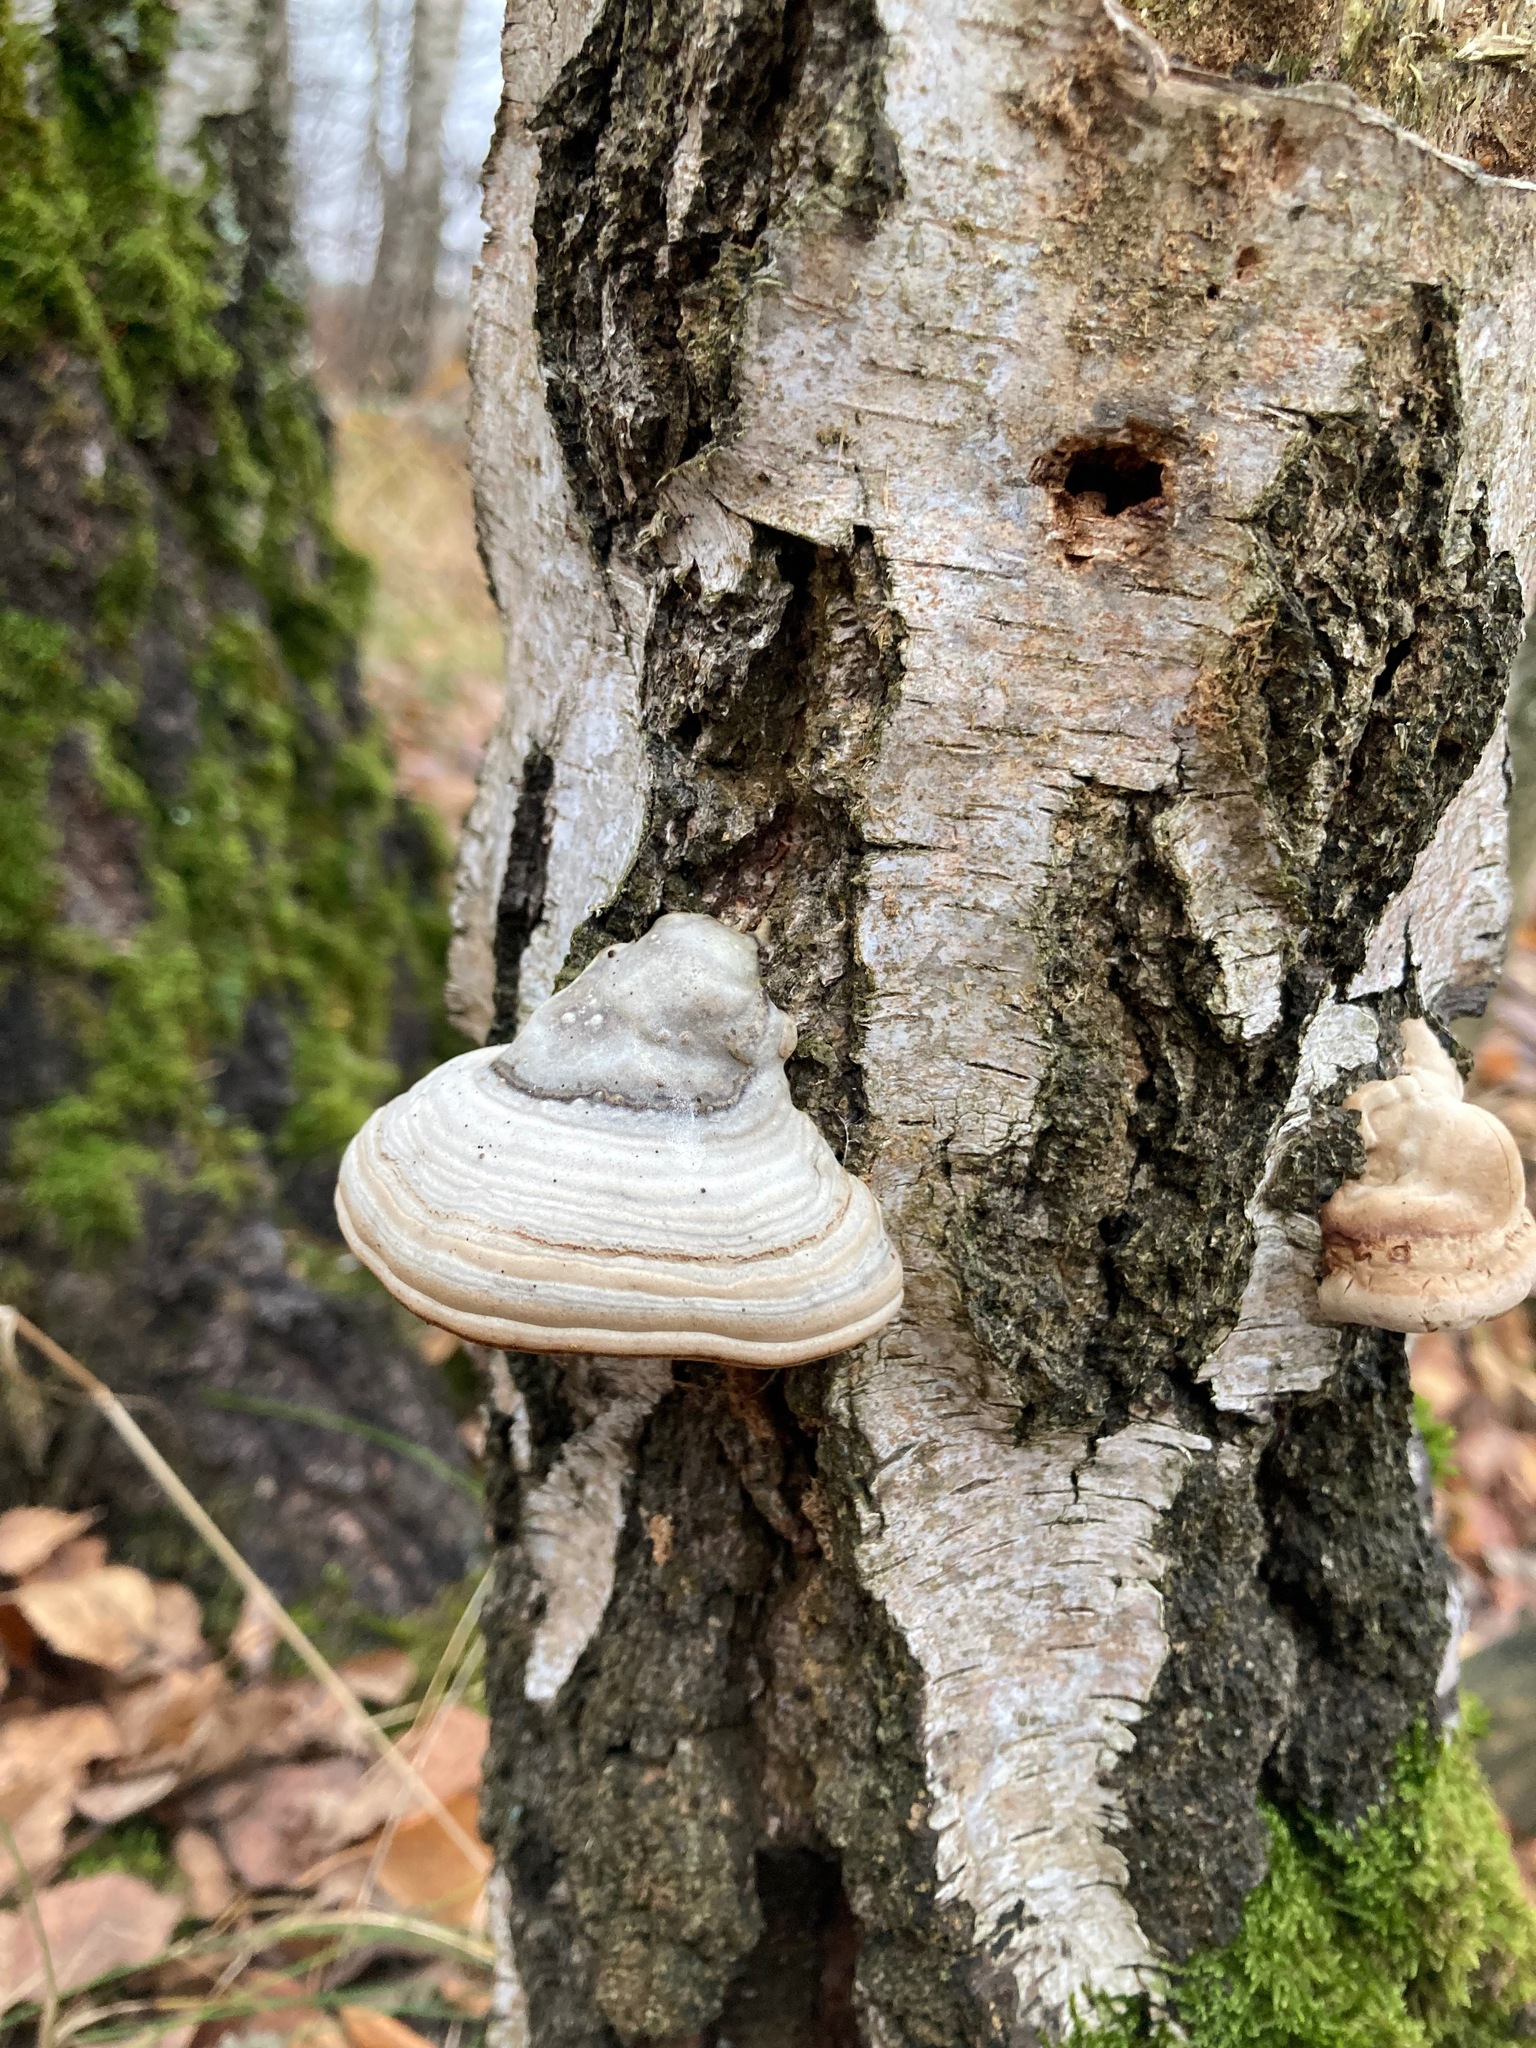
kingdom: Fungi
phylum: Basidiomycota
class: Agaricomycetes
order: Polyporales
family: Polyporaceae
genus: Fomes
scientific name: Fomes fomentarius
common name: Hoof fungus
